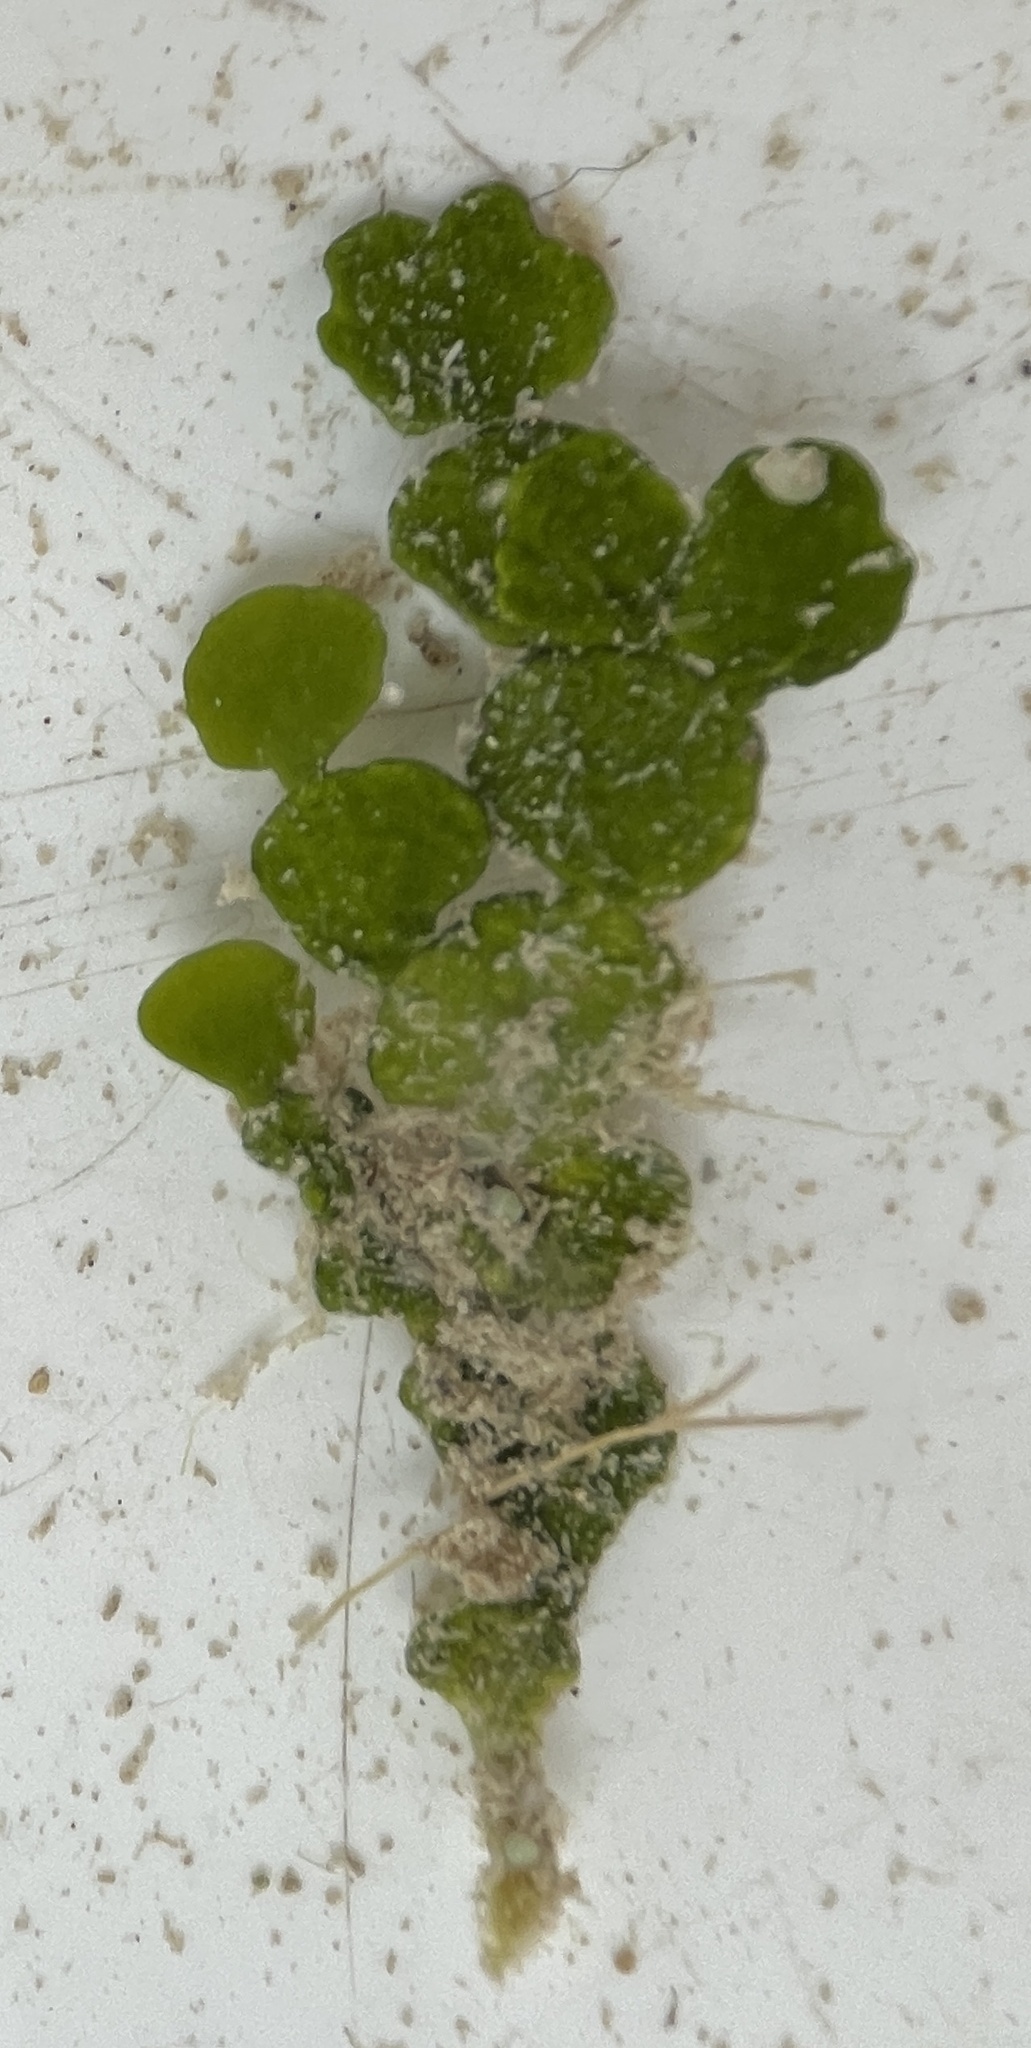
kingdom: Plantae
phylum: Chlorophyta
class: Ulvophyceae
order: Bryopsidales
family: Halimedaceae
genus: Halimeda
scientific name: Halimeda tuna
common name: Stalked lettuce leaf algae
